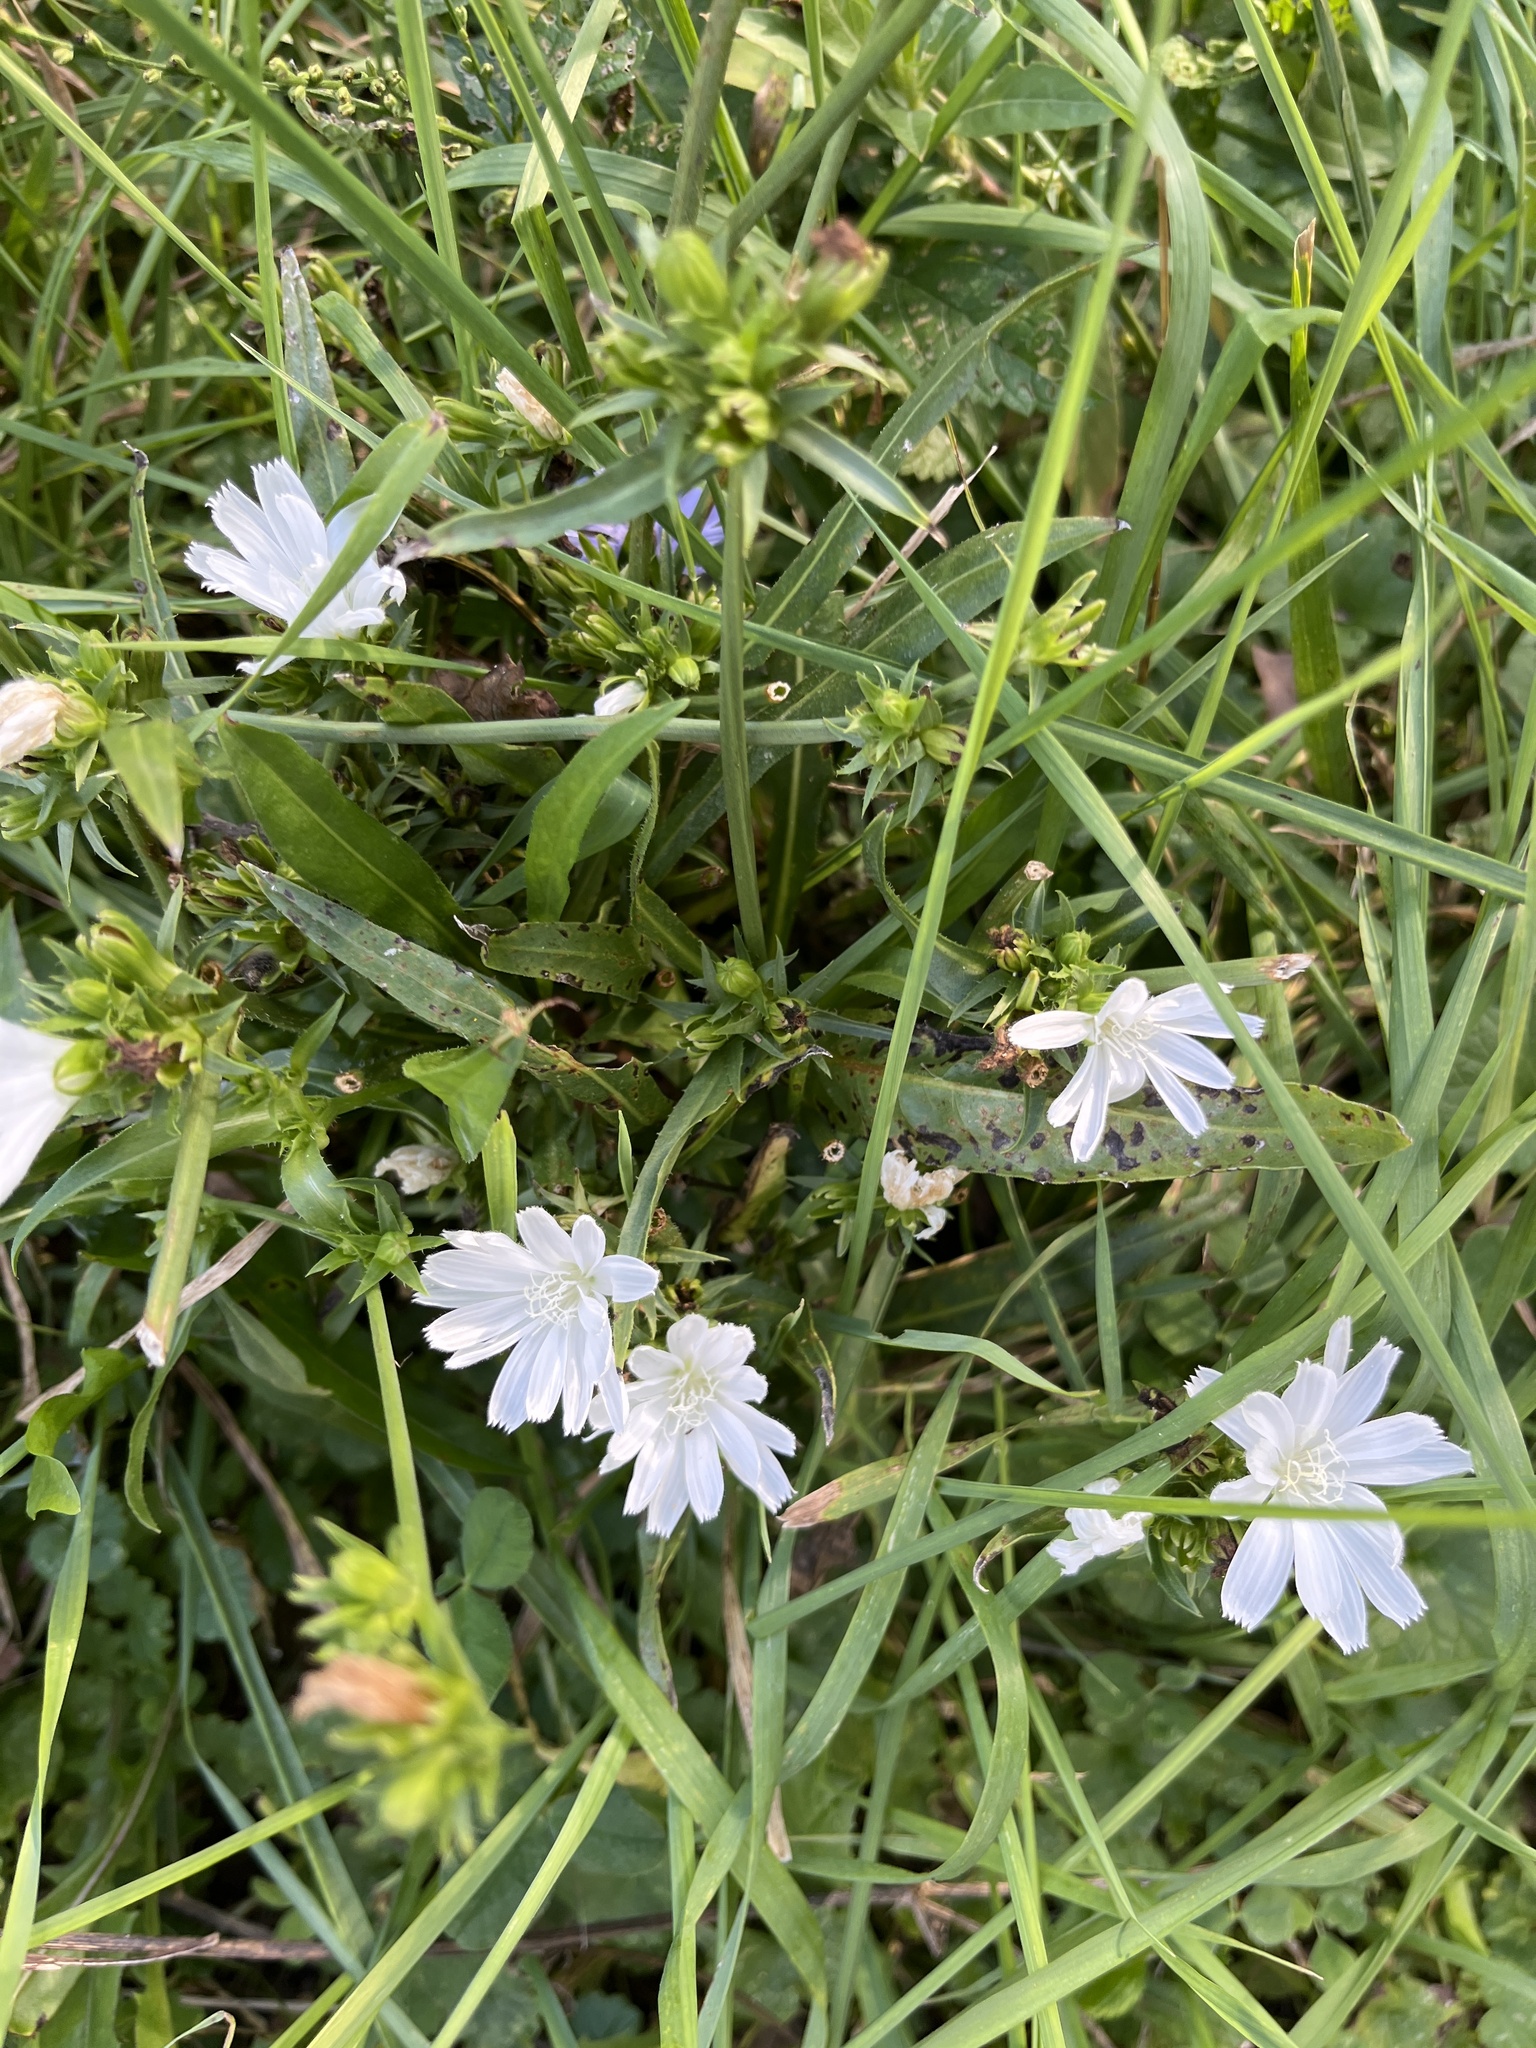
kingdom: Plantae
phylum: Tracheophyta
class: Magnoliopsida
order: Asterales
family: Asteraceae
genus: Cichorium
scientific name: Cichorium intybus
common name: Chicory
